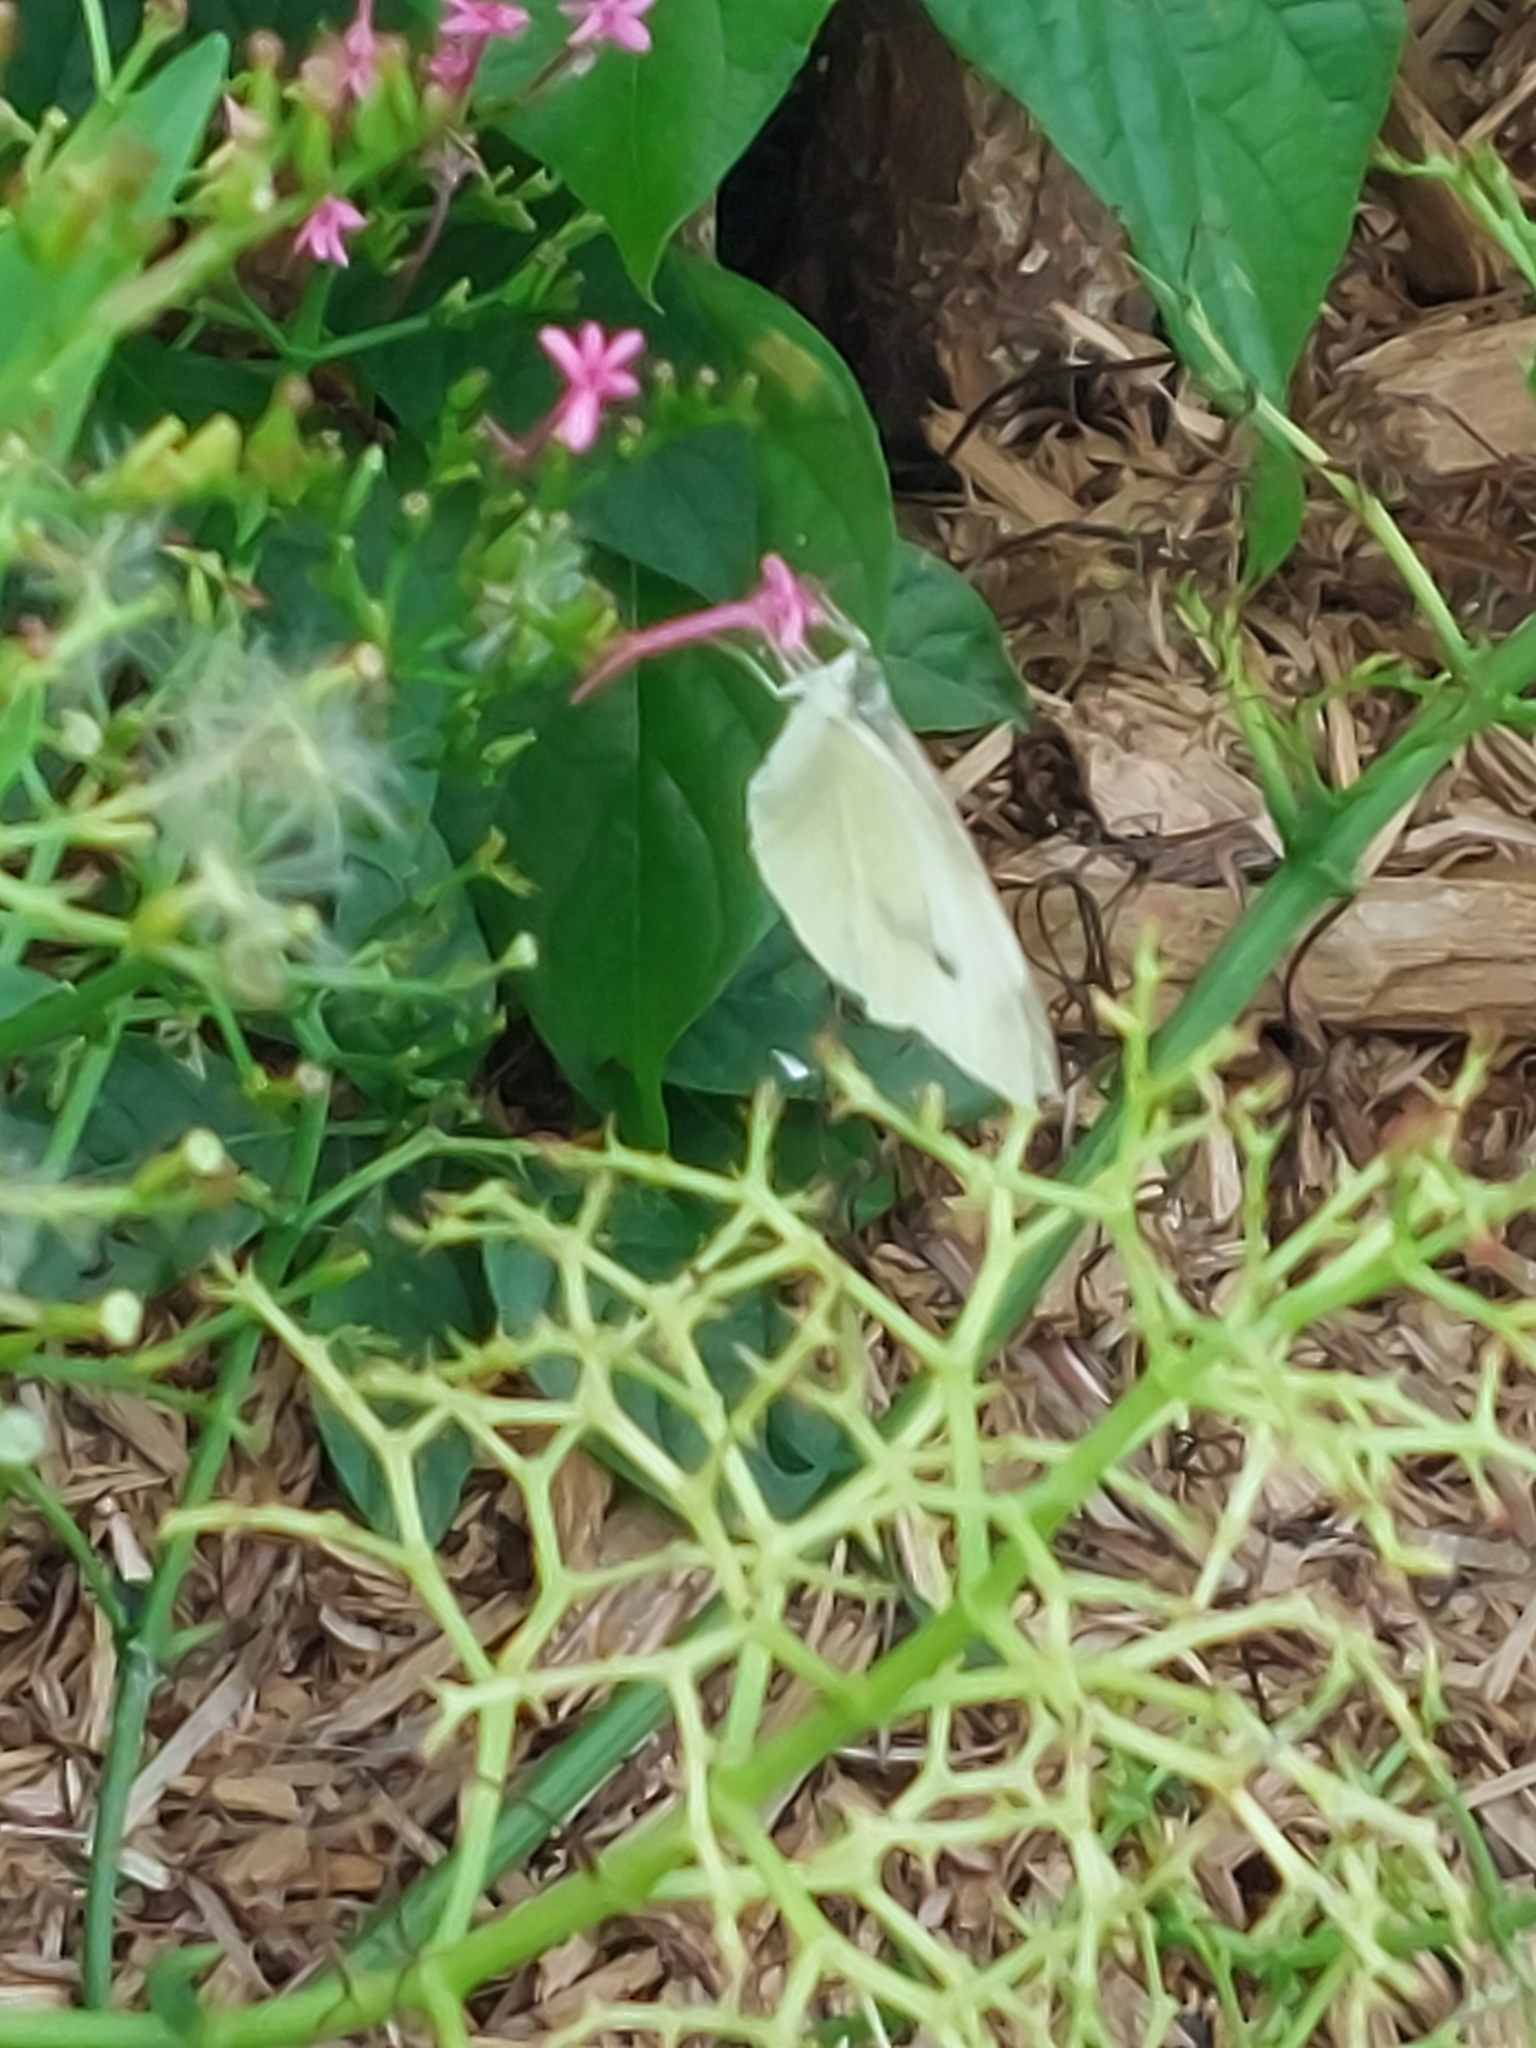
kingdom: Animalia
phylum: Arthropoda
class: Insecta
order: Lepidoptera
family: Pieridae
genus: Pieris
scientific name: Pieris rapae
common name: Small white
